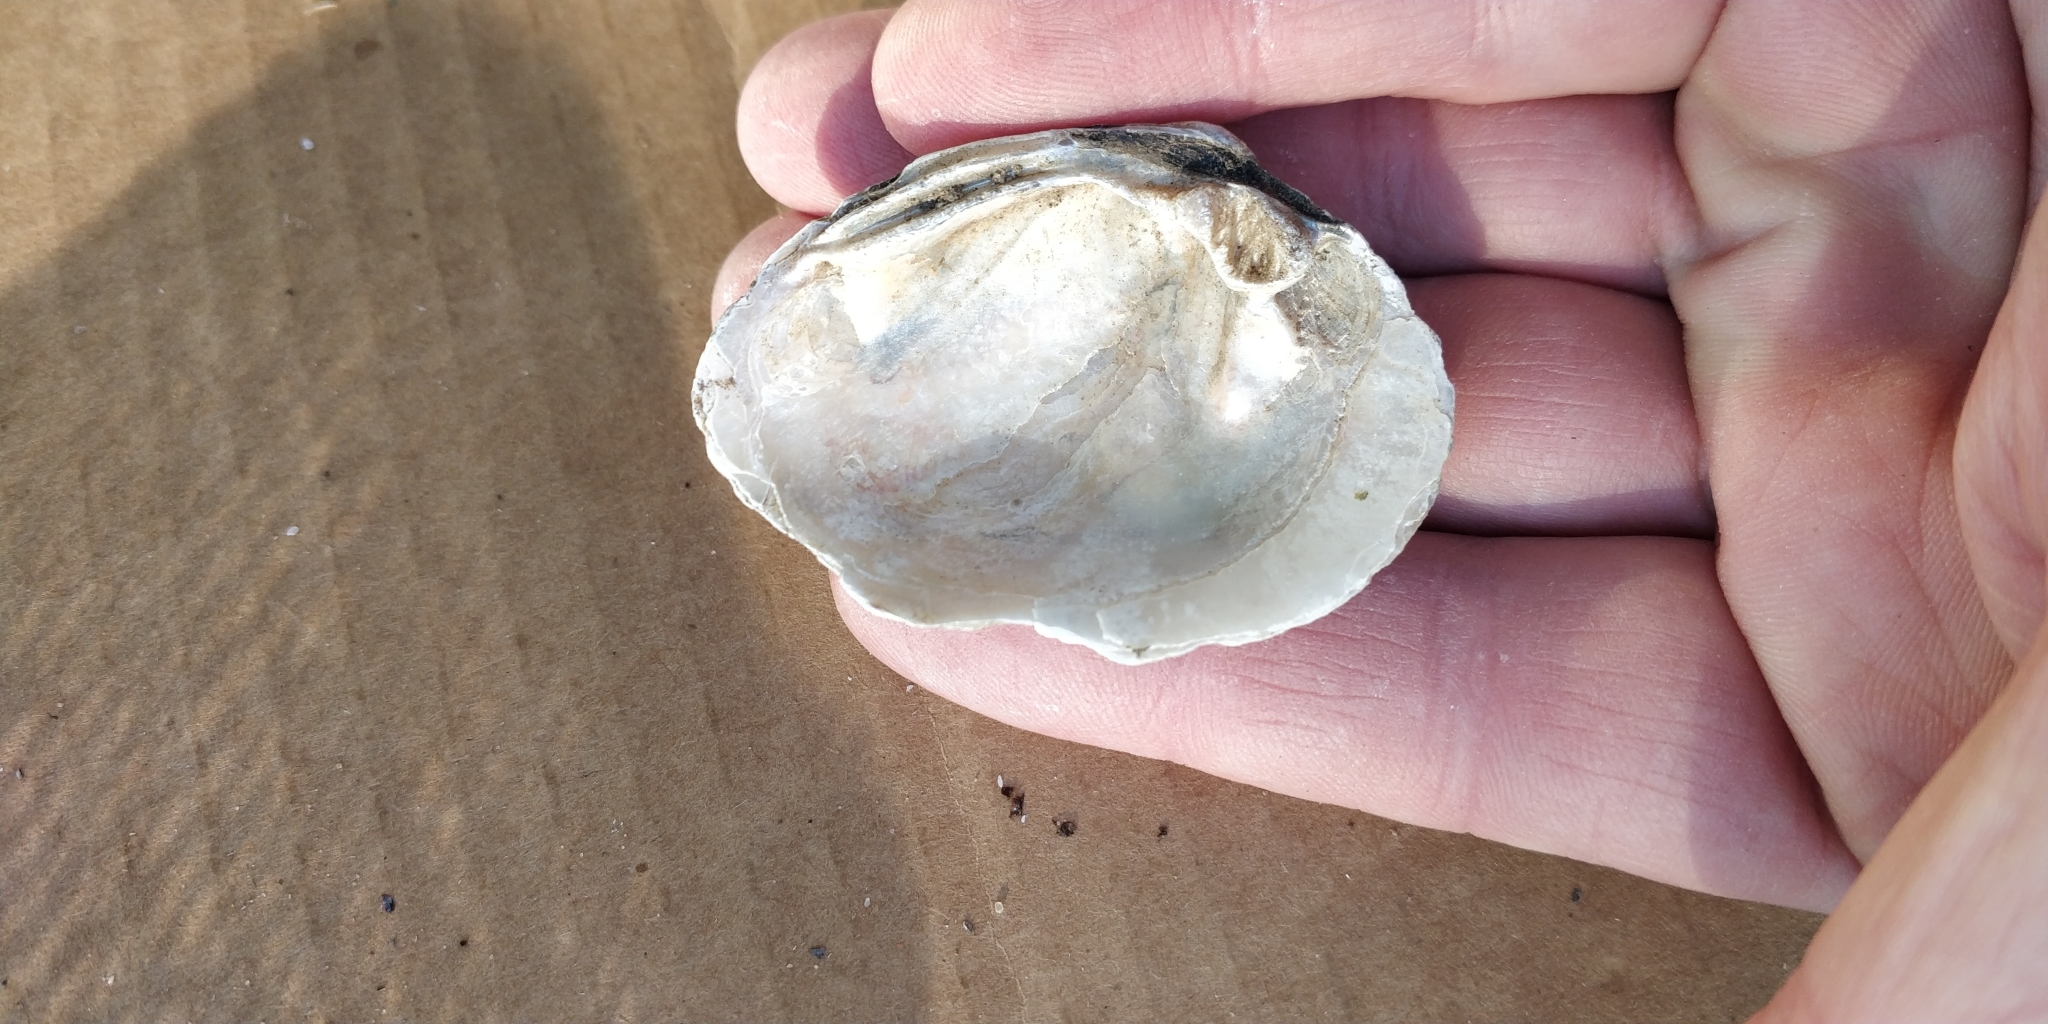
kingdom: Animalia
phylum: Mollusca
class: Bivalvia
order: Unionida
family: Unionidae
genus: Fusconaia
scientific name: Fusconaia flava
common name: Wabash pigtoe
